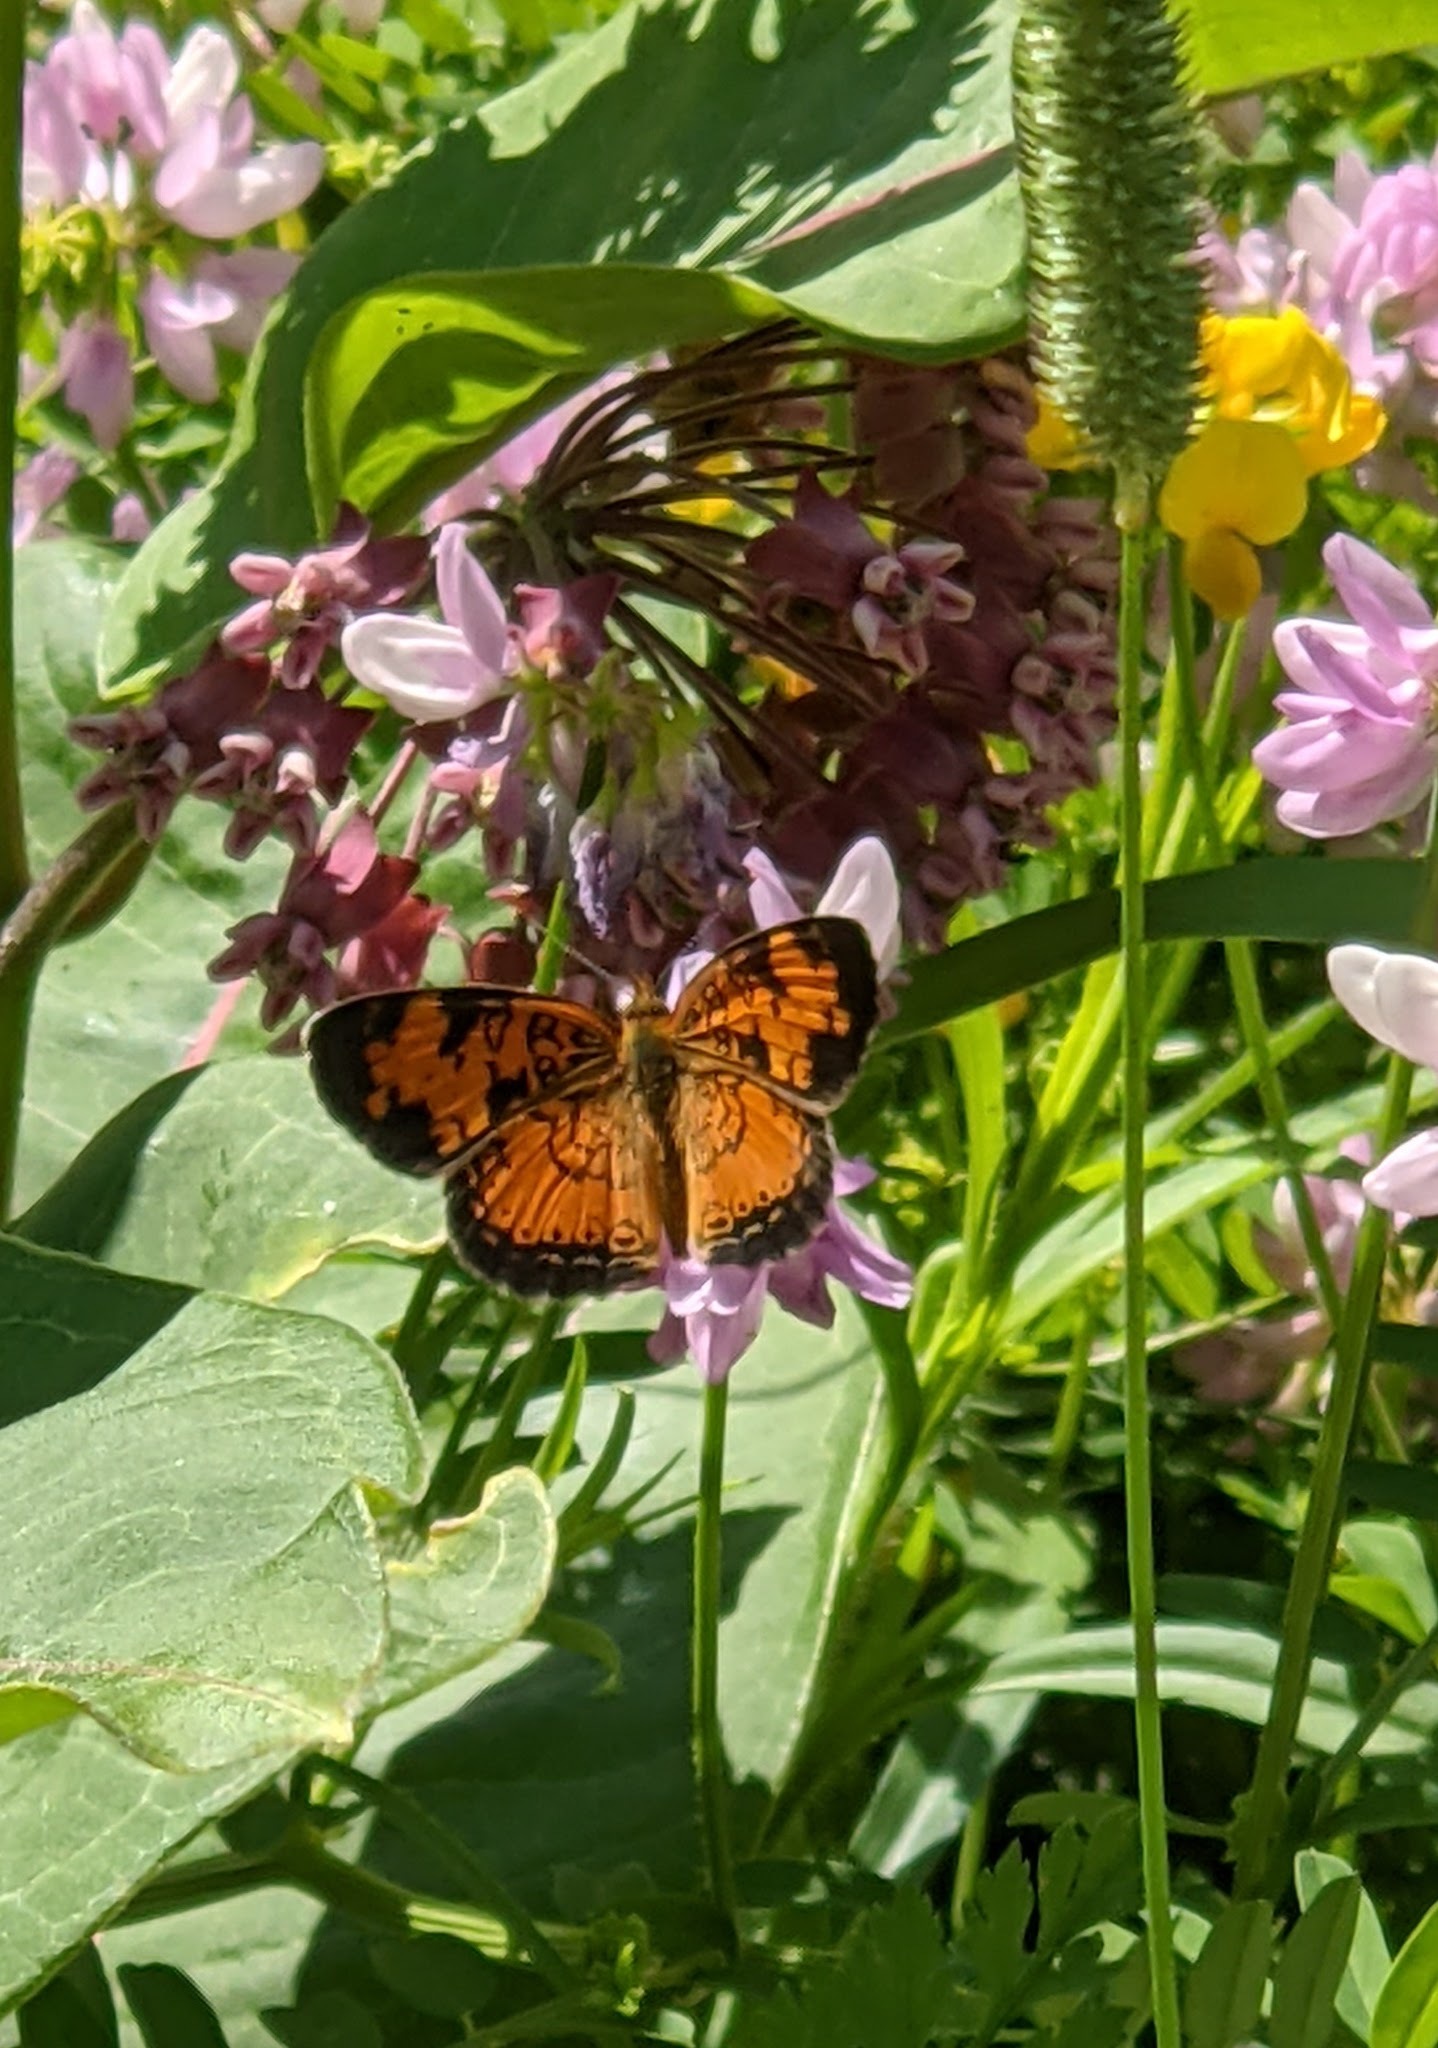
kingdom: Animalia
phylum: Arthropoda
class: Insecta
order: Lepidoptera
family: Nymphalidae
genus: Phyciodes
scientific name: Phyciodes tharos
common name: Pearl crescent
